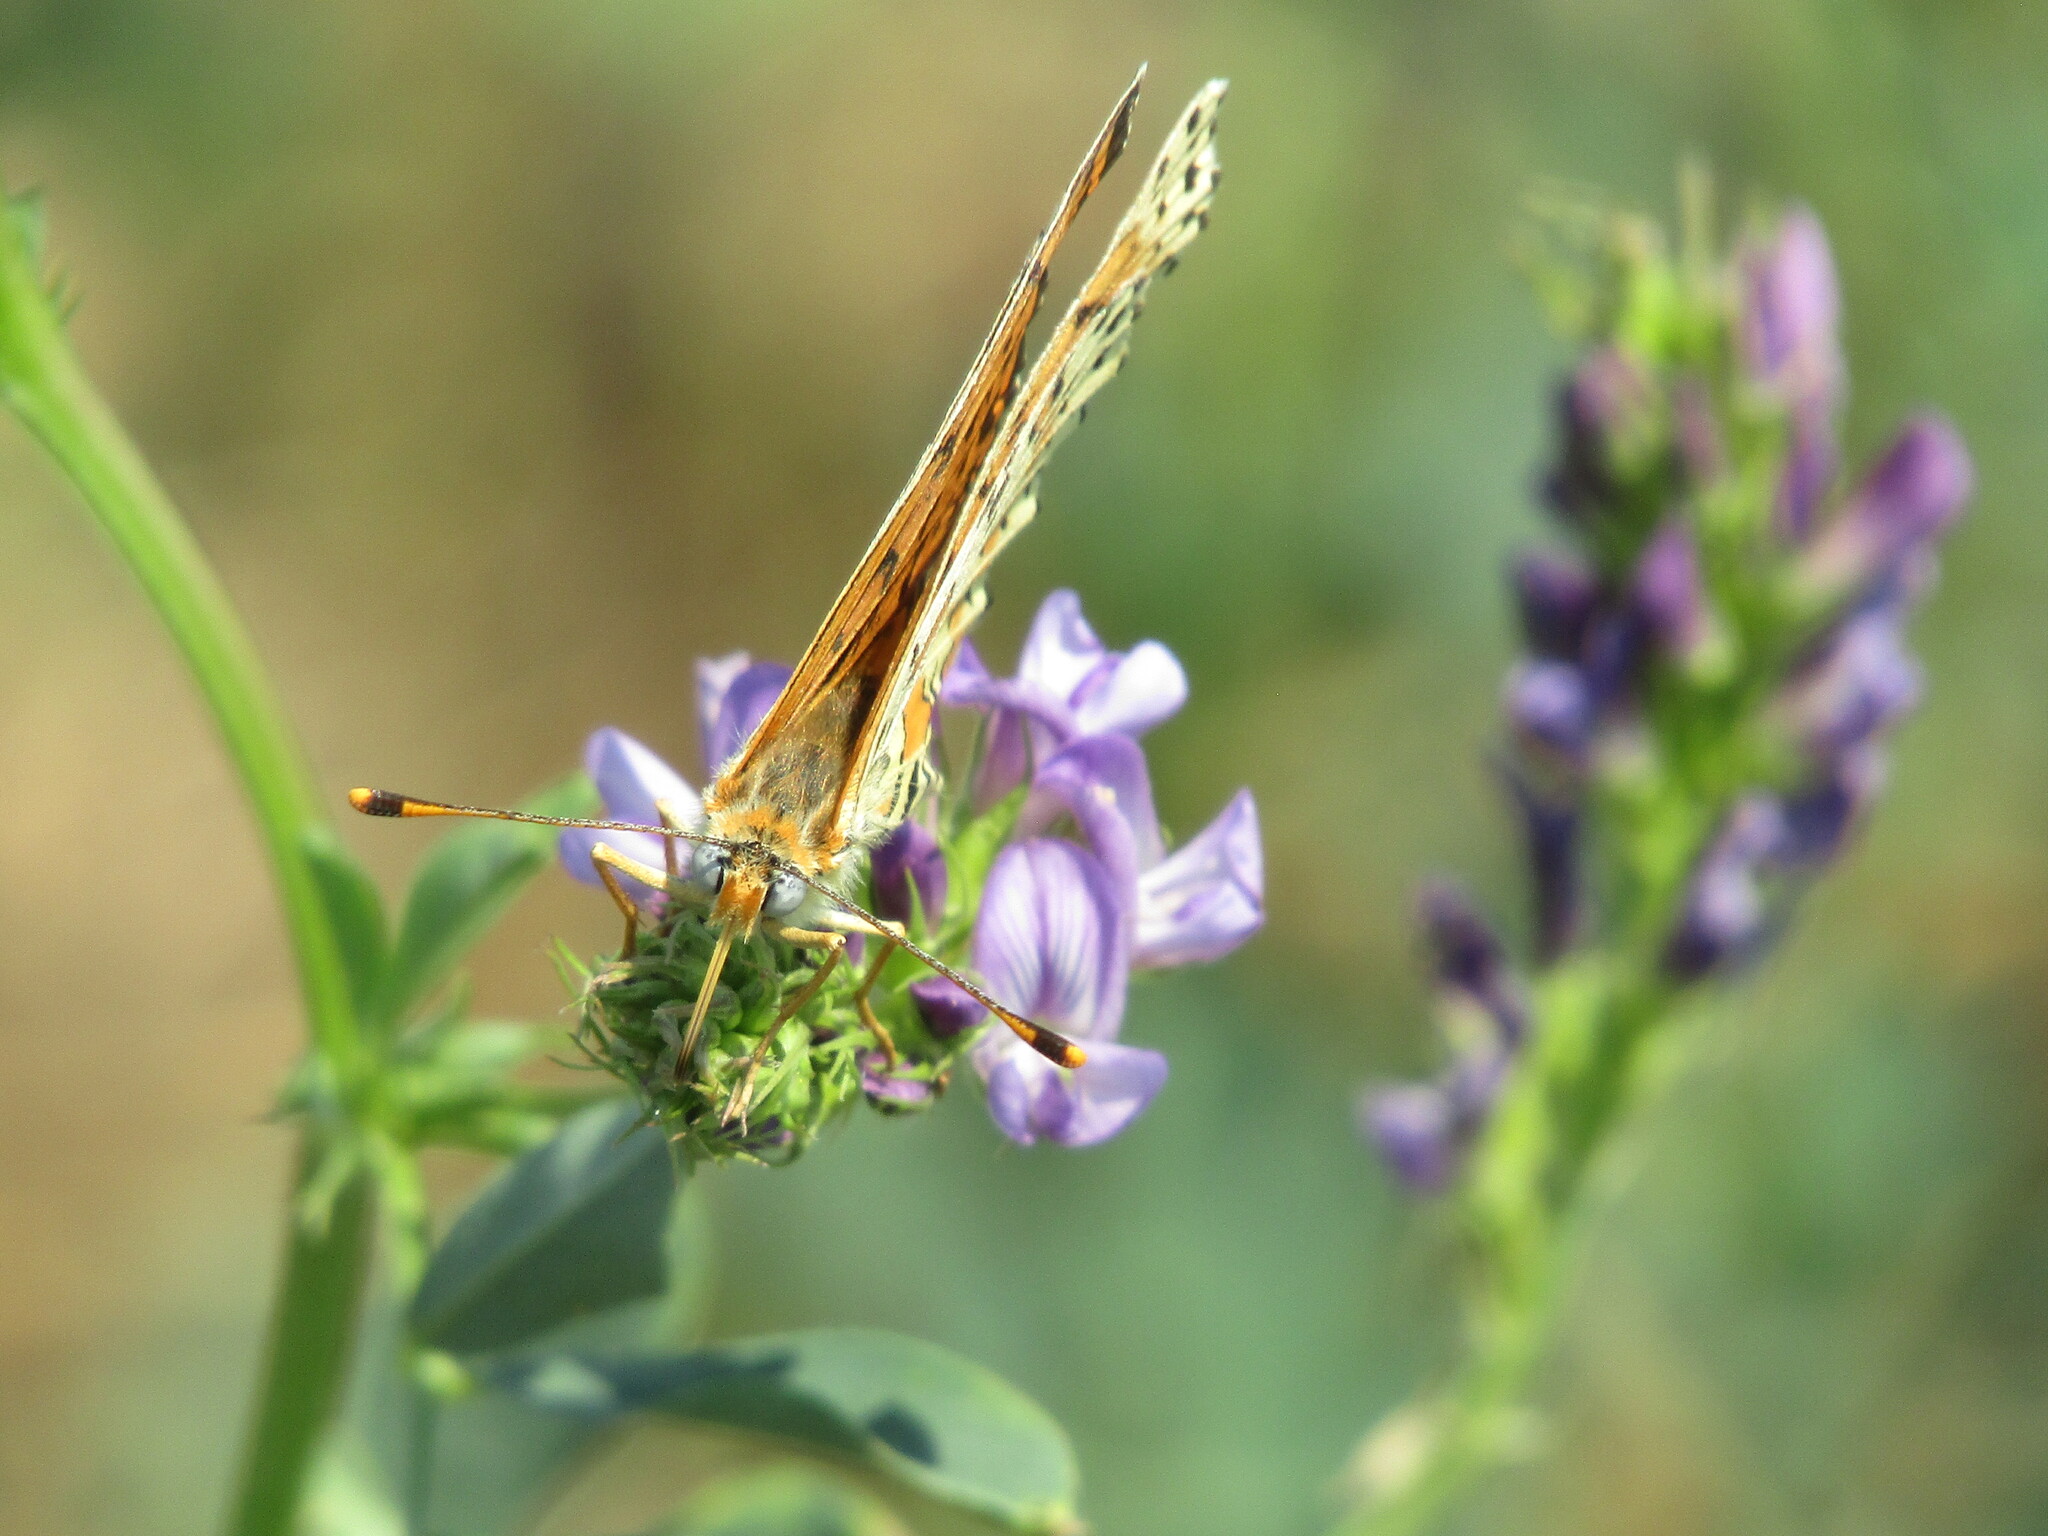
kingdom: Animalia
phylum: Arthropoda
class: Insecta
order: Lepidoptera
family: Nymphalidae
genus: Melitaea
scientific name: Melitaea didyma
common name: Spotted fritillary
